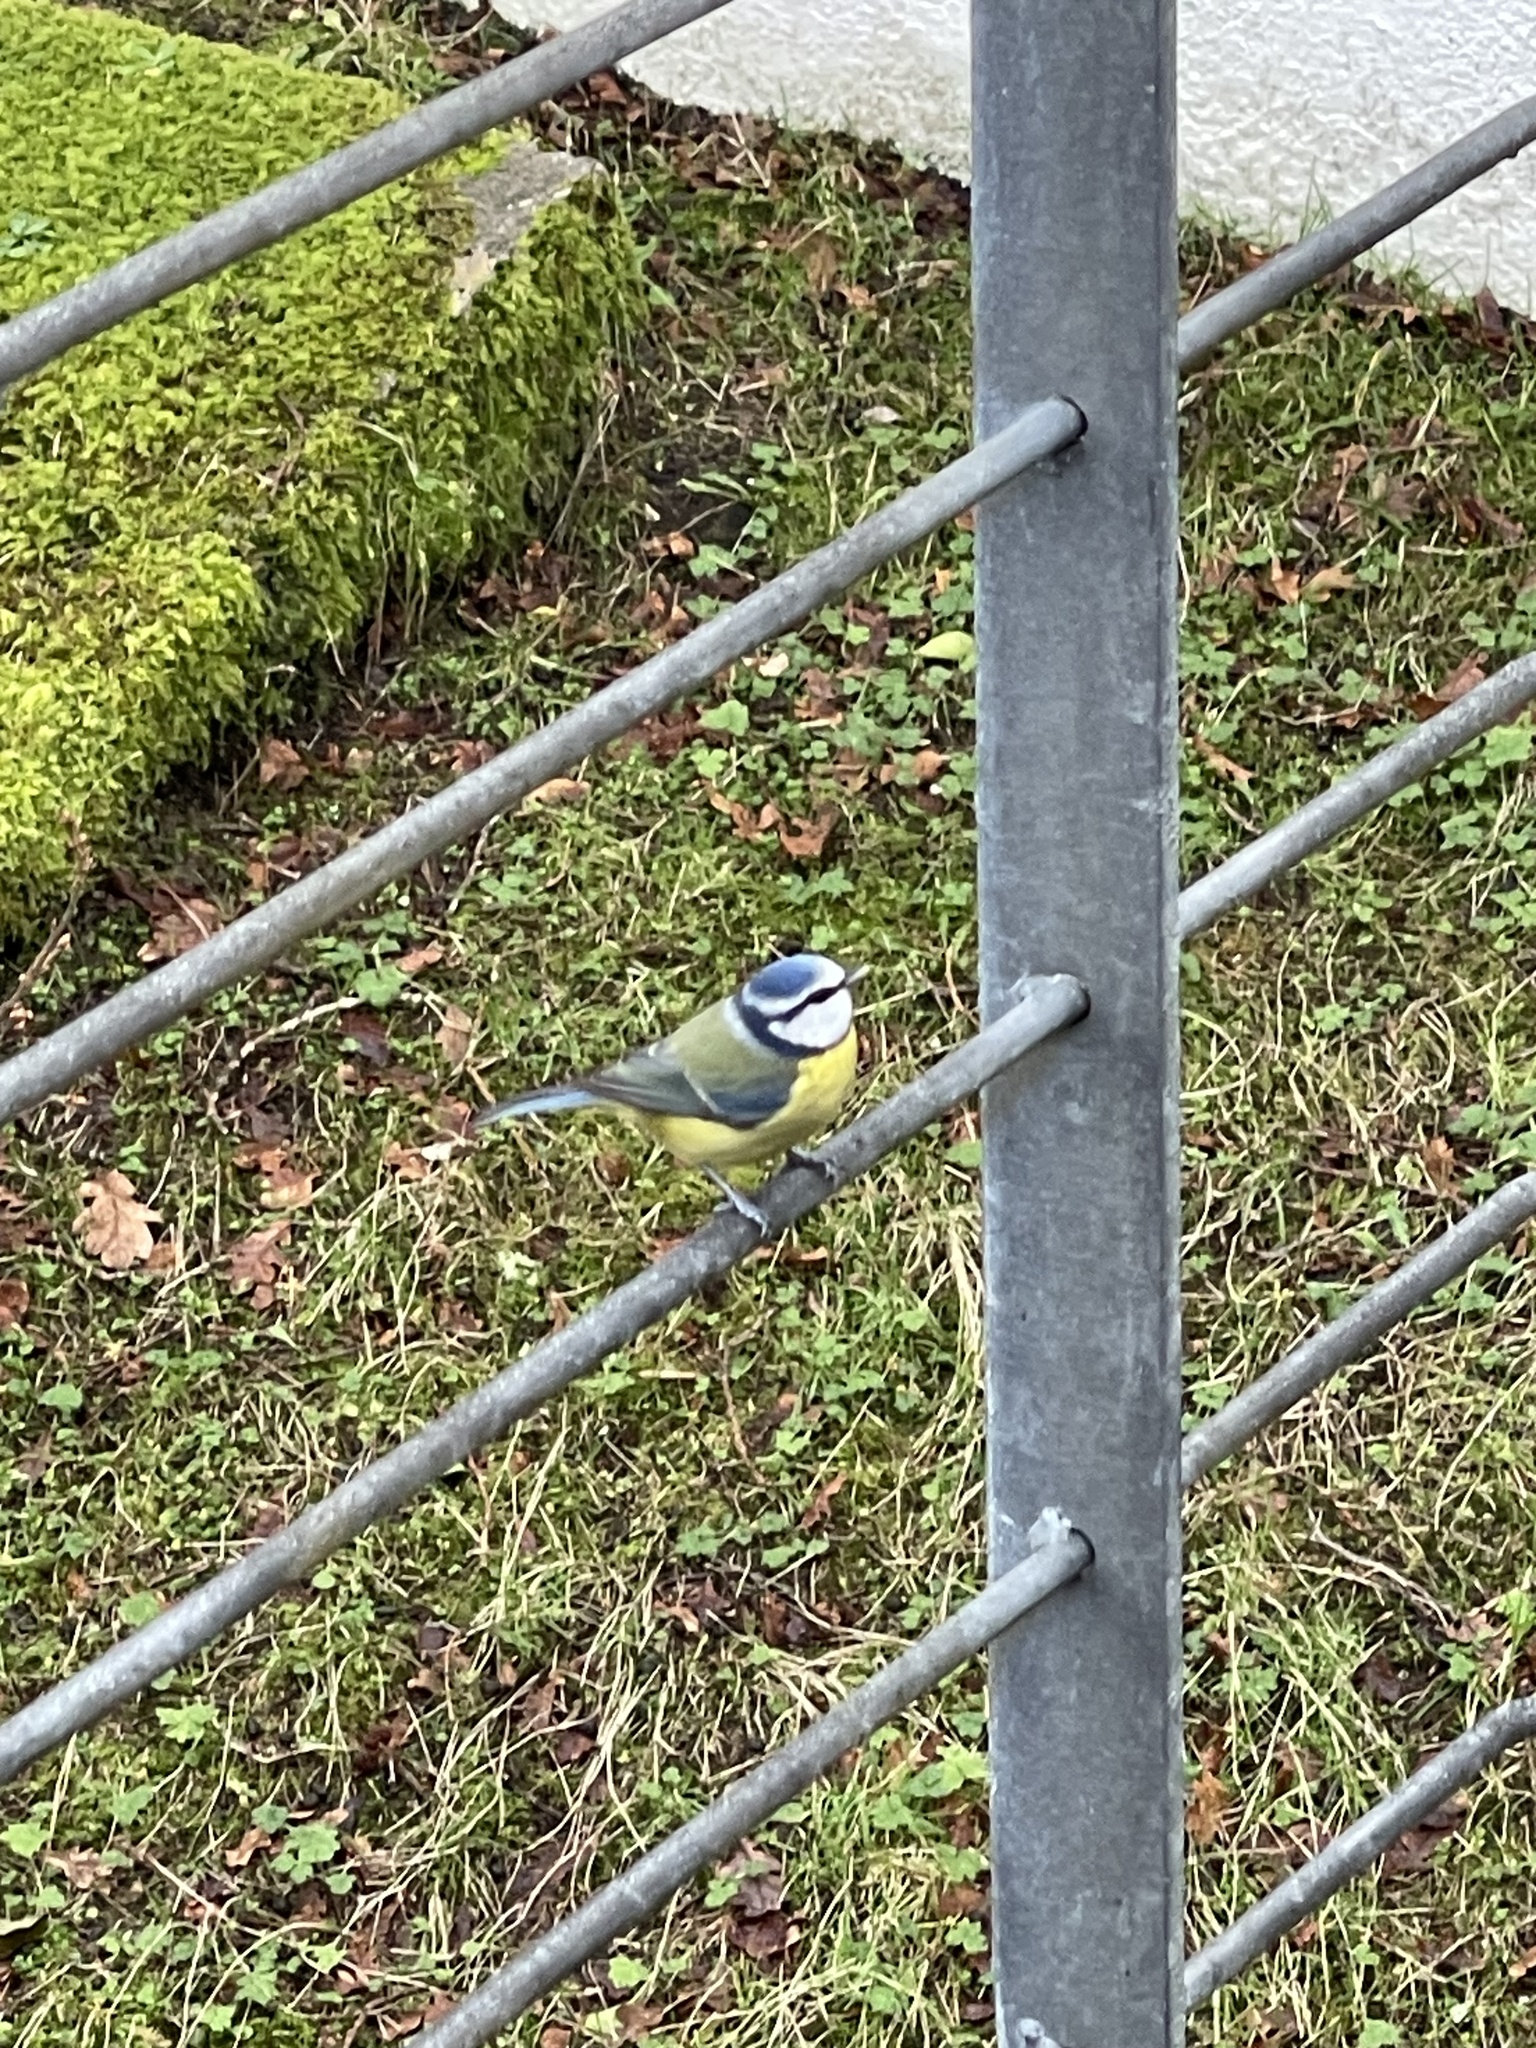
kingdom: Animalia
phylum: Chordata
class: Aves
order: Passeriformes
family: Paridae
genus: Cyanistes
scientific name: Cyanistes caeruleus
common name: Eurasian blue tit
